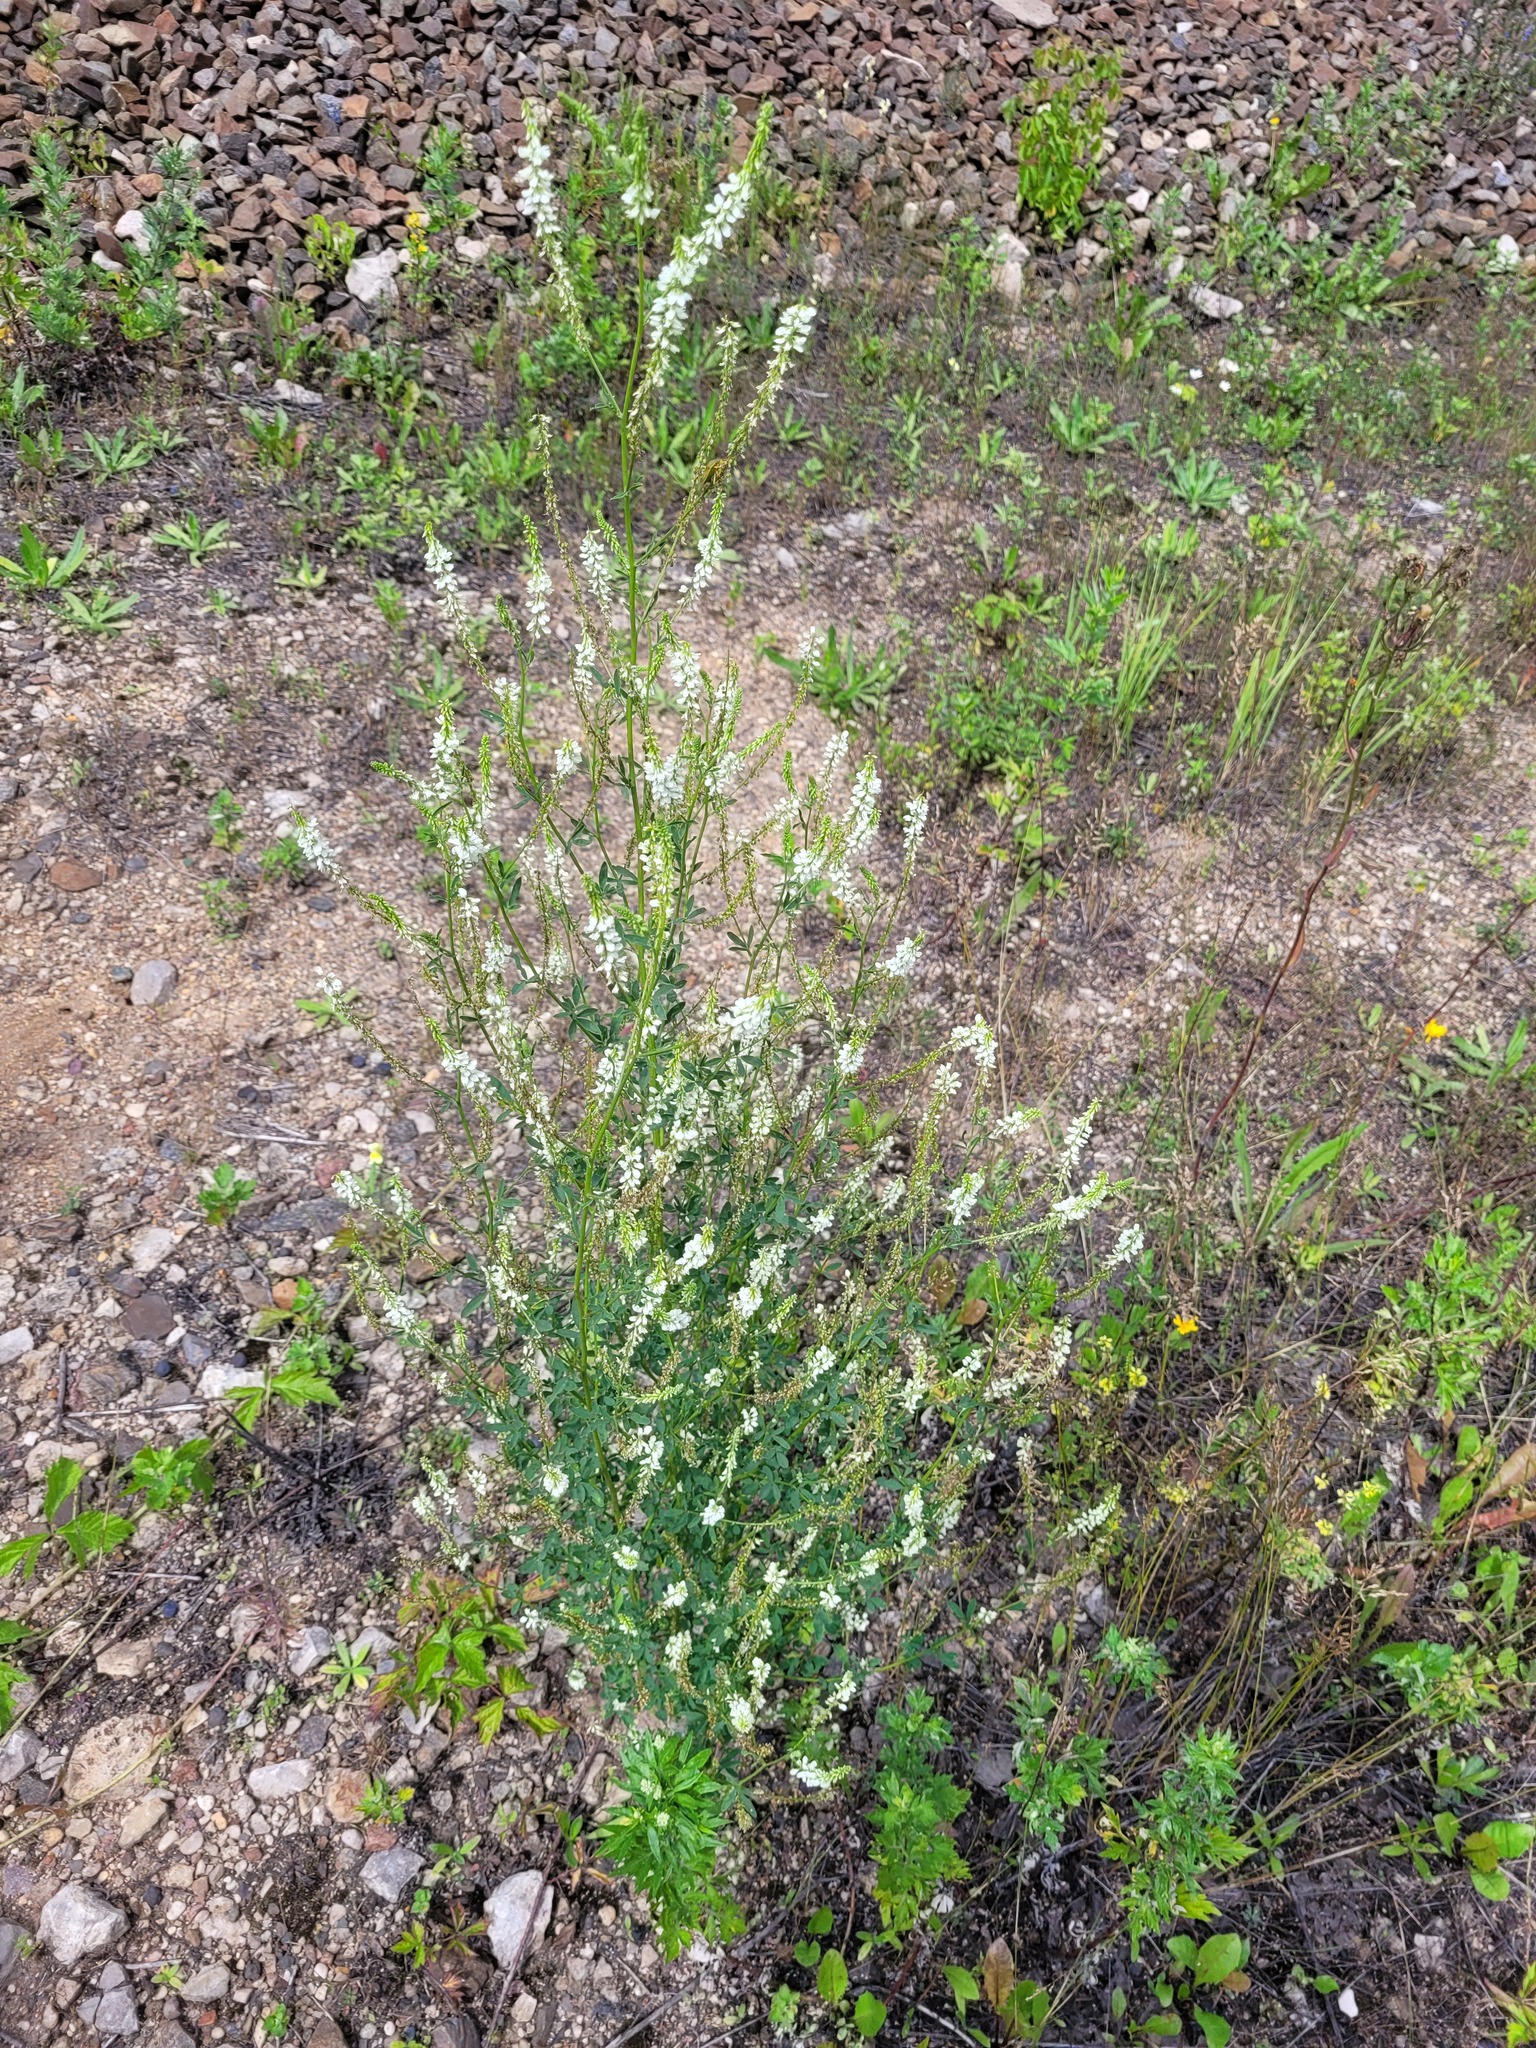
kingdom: Plantae
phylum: Tracheophyta
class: Magnoliopsida
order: Fabales
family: Fabaceae
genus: Melilotus
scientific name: Melilotus albus
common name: White melilot
